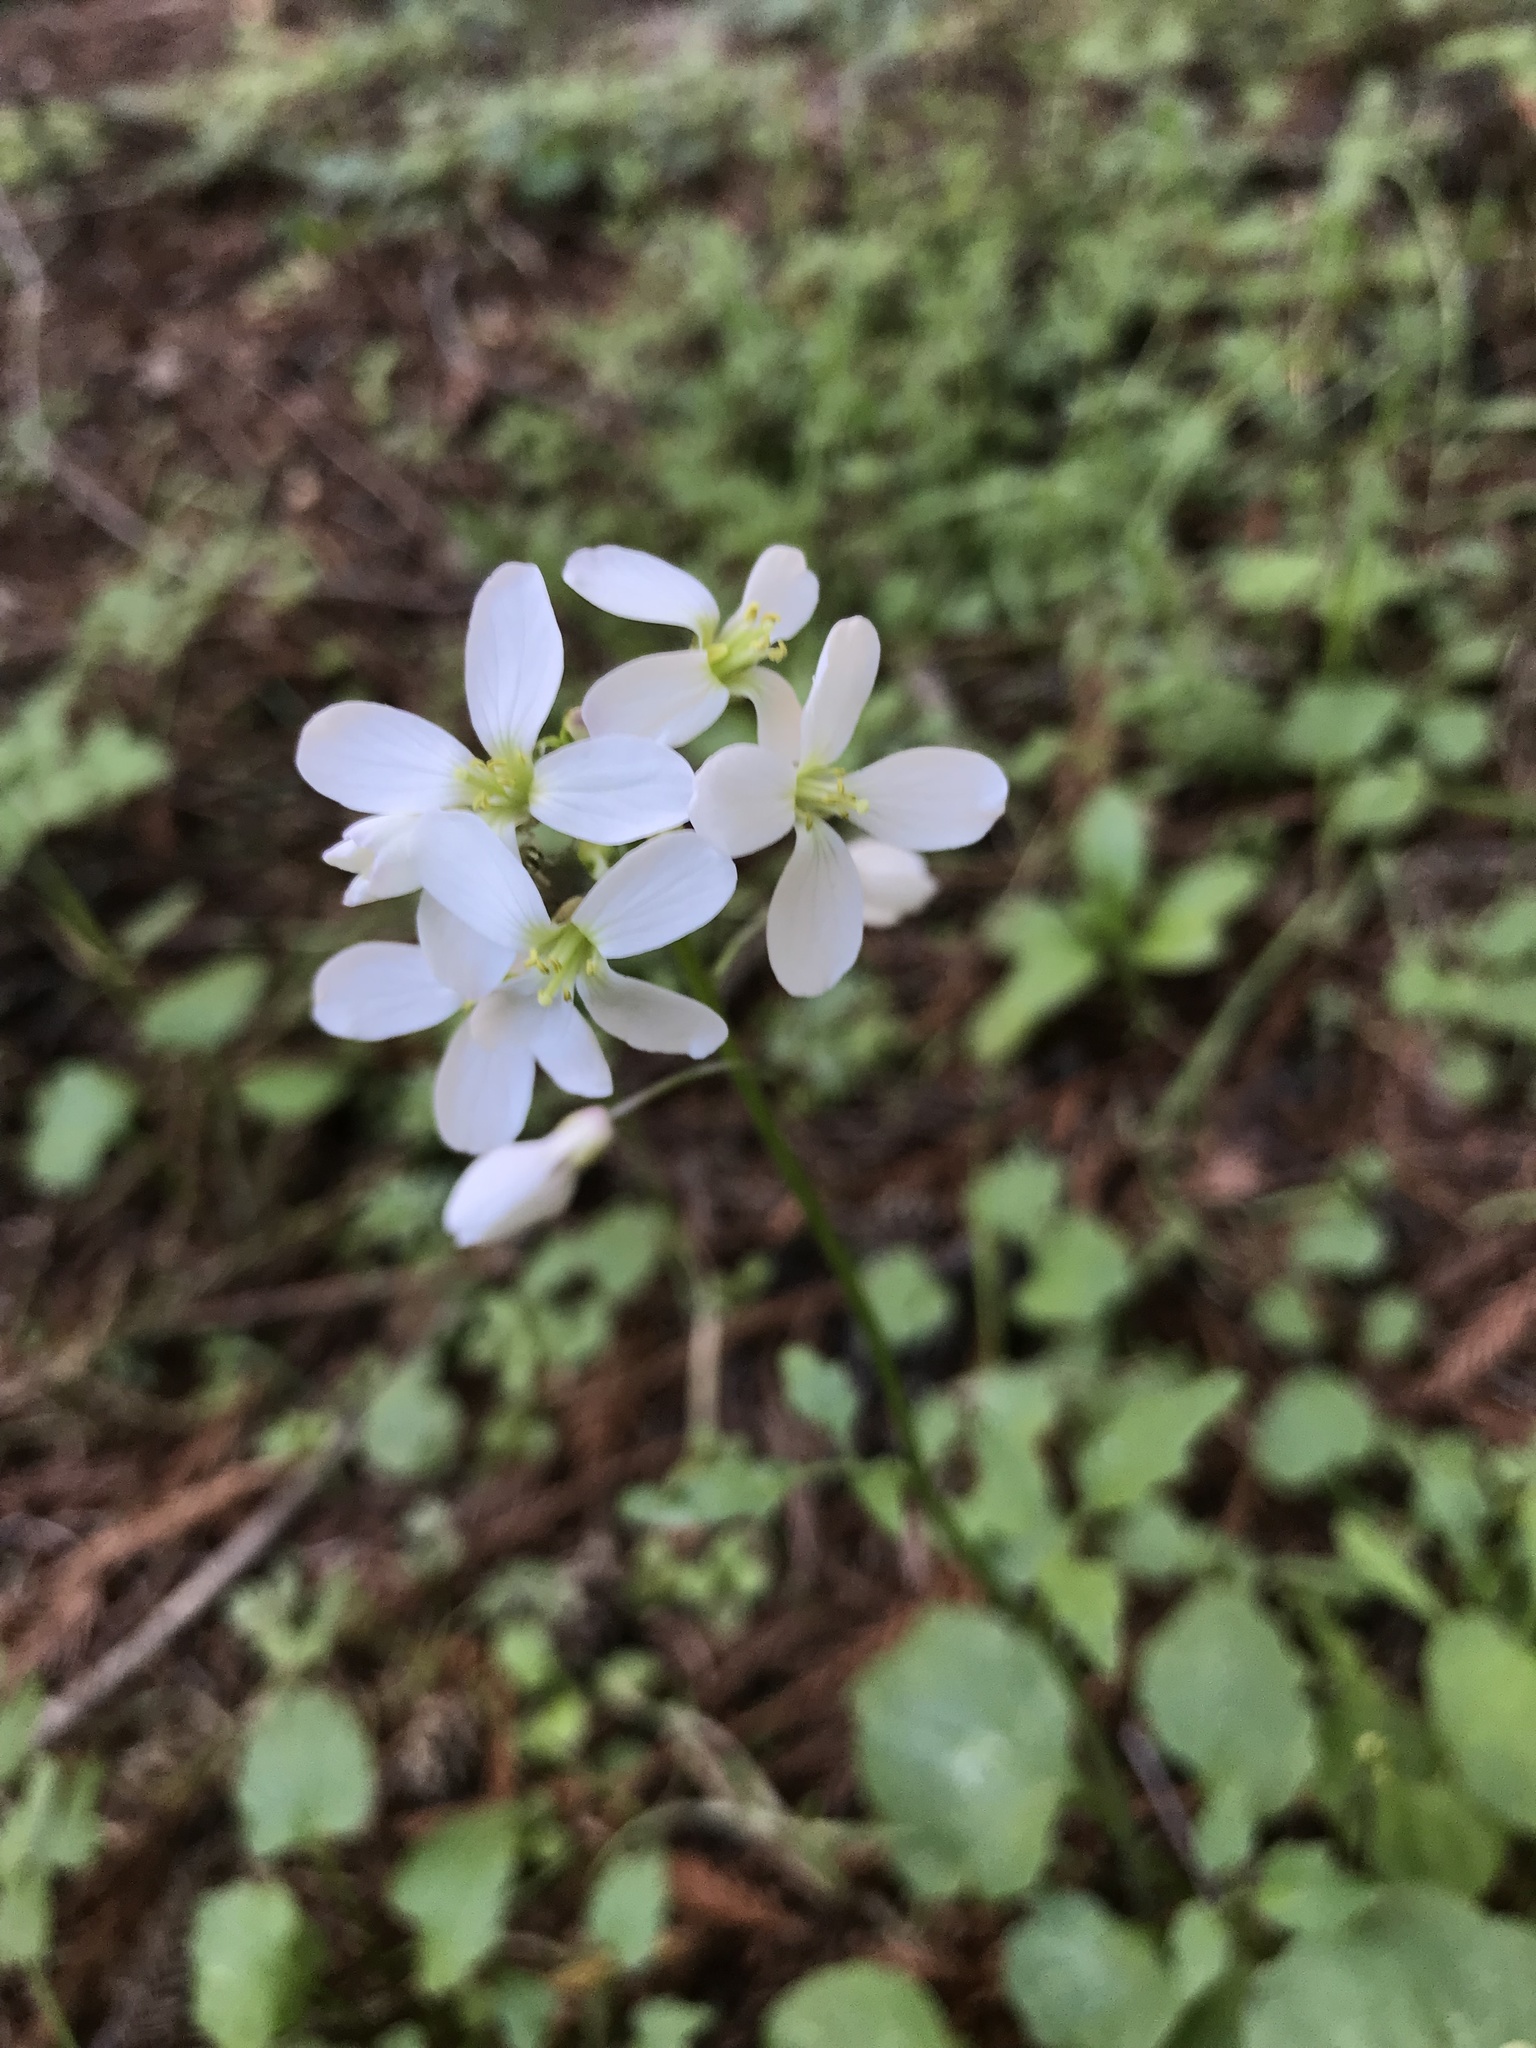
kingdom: Plantae
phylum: Tracheophyta
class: Magnoliopsida
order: Brassicales
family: Brassicaceae
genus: Cardamine
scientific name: Cardamine californica
